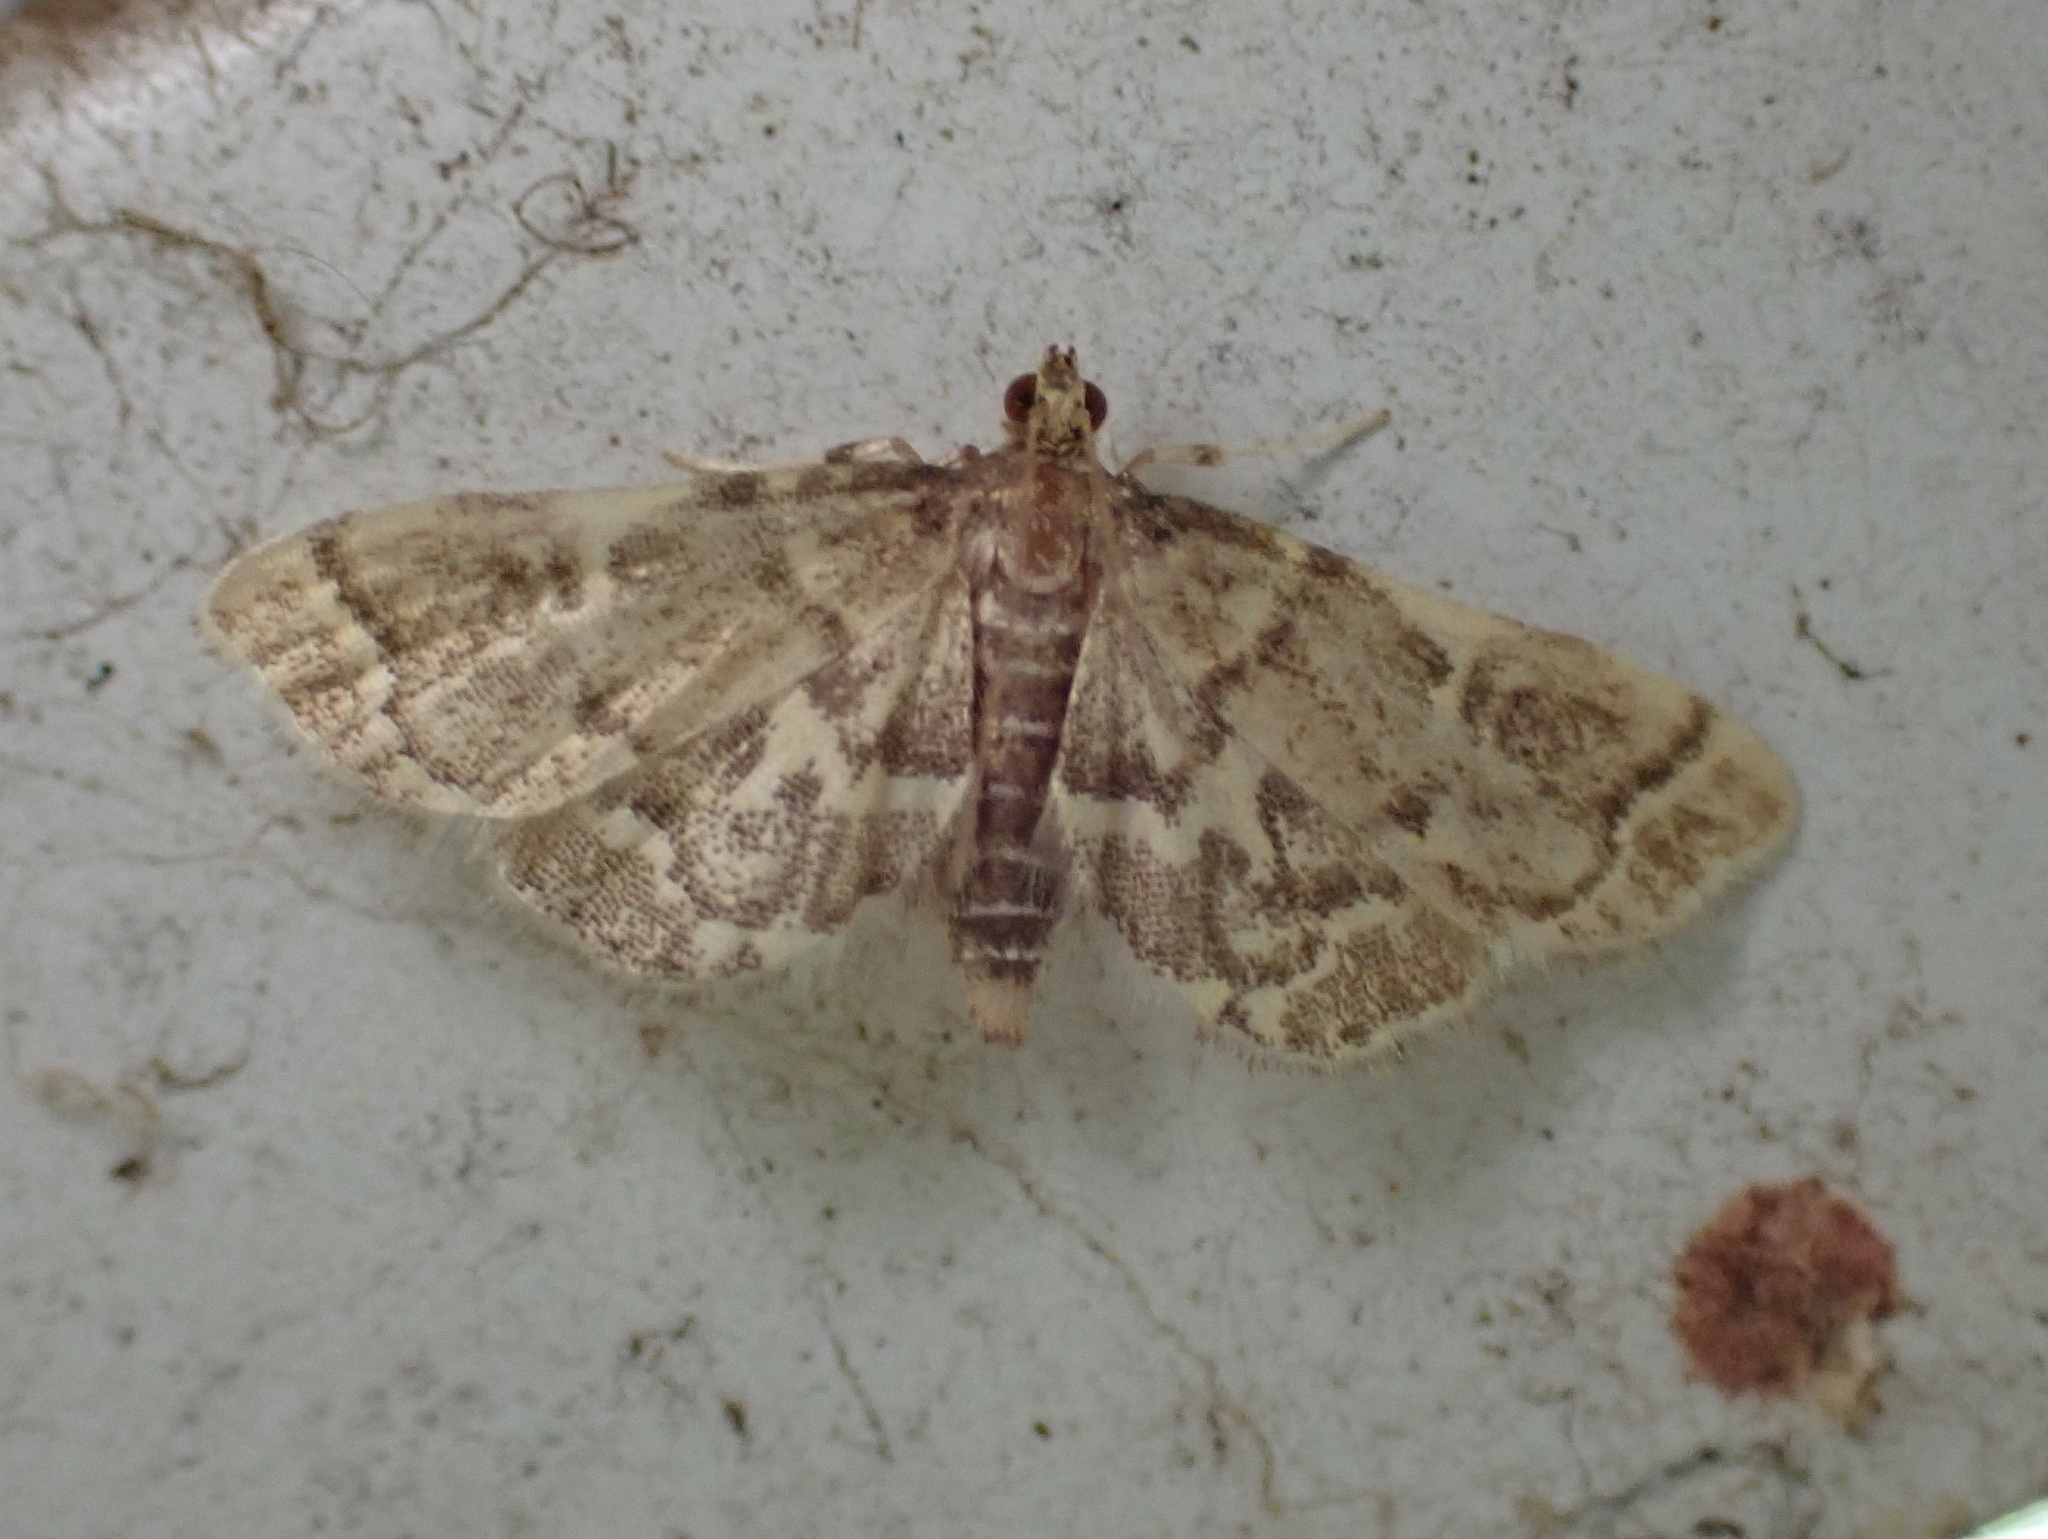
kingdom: Animalia
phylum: Arthropoda
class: Insecta
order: Lepidoptera
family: Crambidae
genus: Anageshna
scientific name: Anageshna primordialis
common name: Yellow-spotted webworm moth
